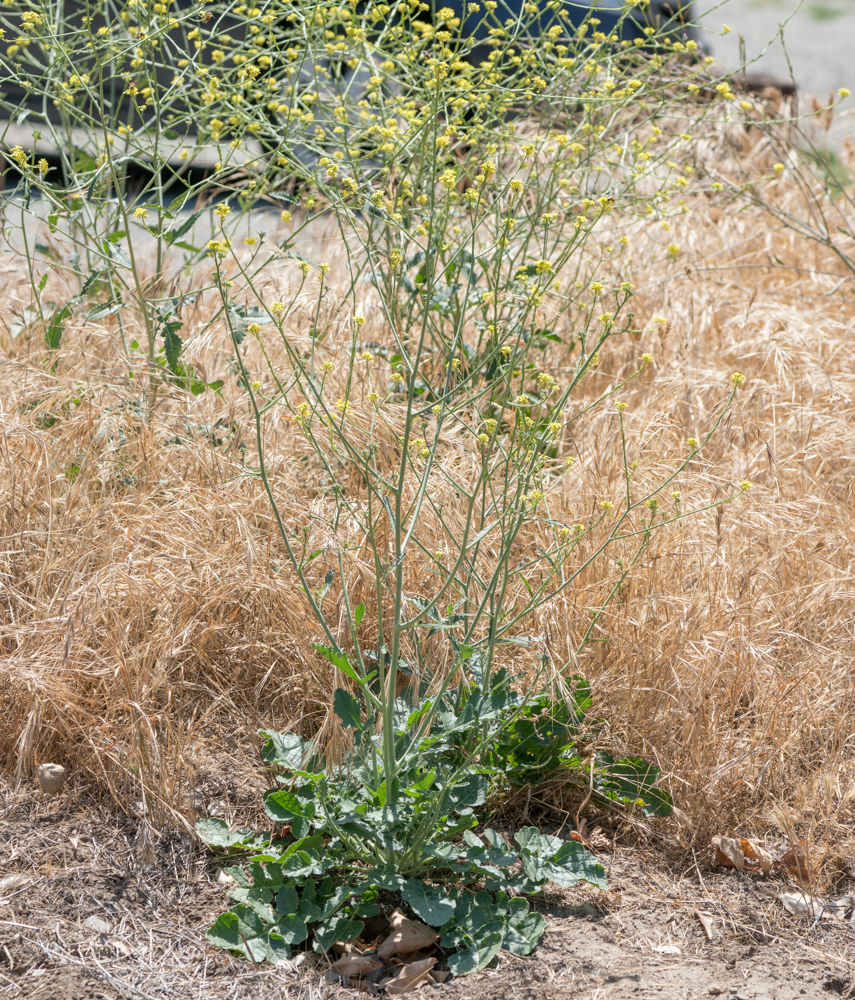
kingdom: Plantae
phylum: Tracheophyta
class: Magnoliopsida
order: Brassicales
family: Brassicaceae
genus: Hirschfeldia
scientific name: Hirschfeldia incana
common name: Hoary mustard
